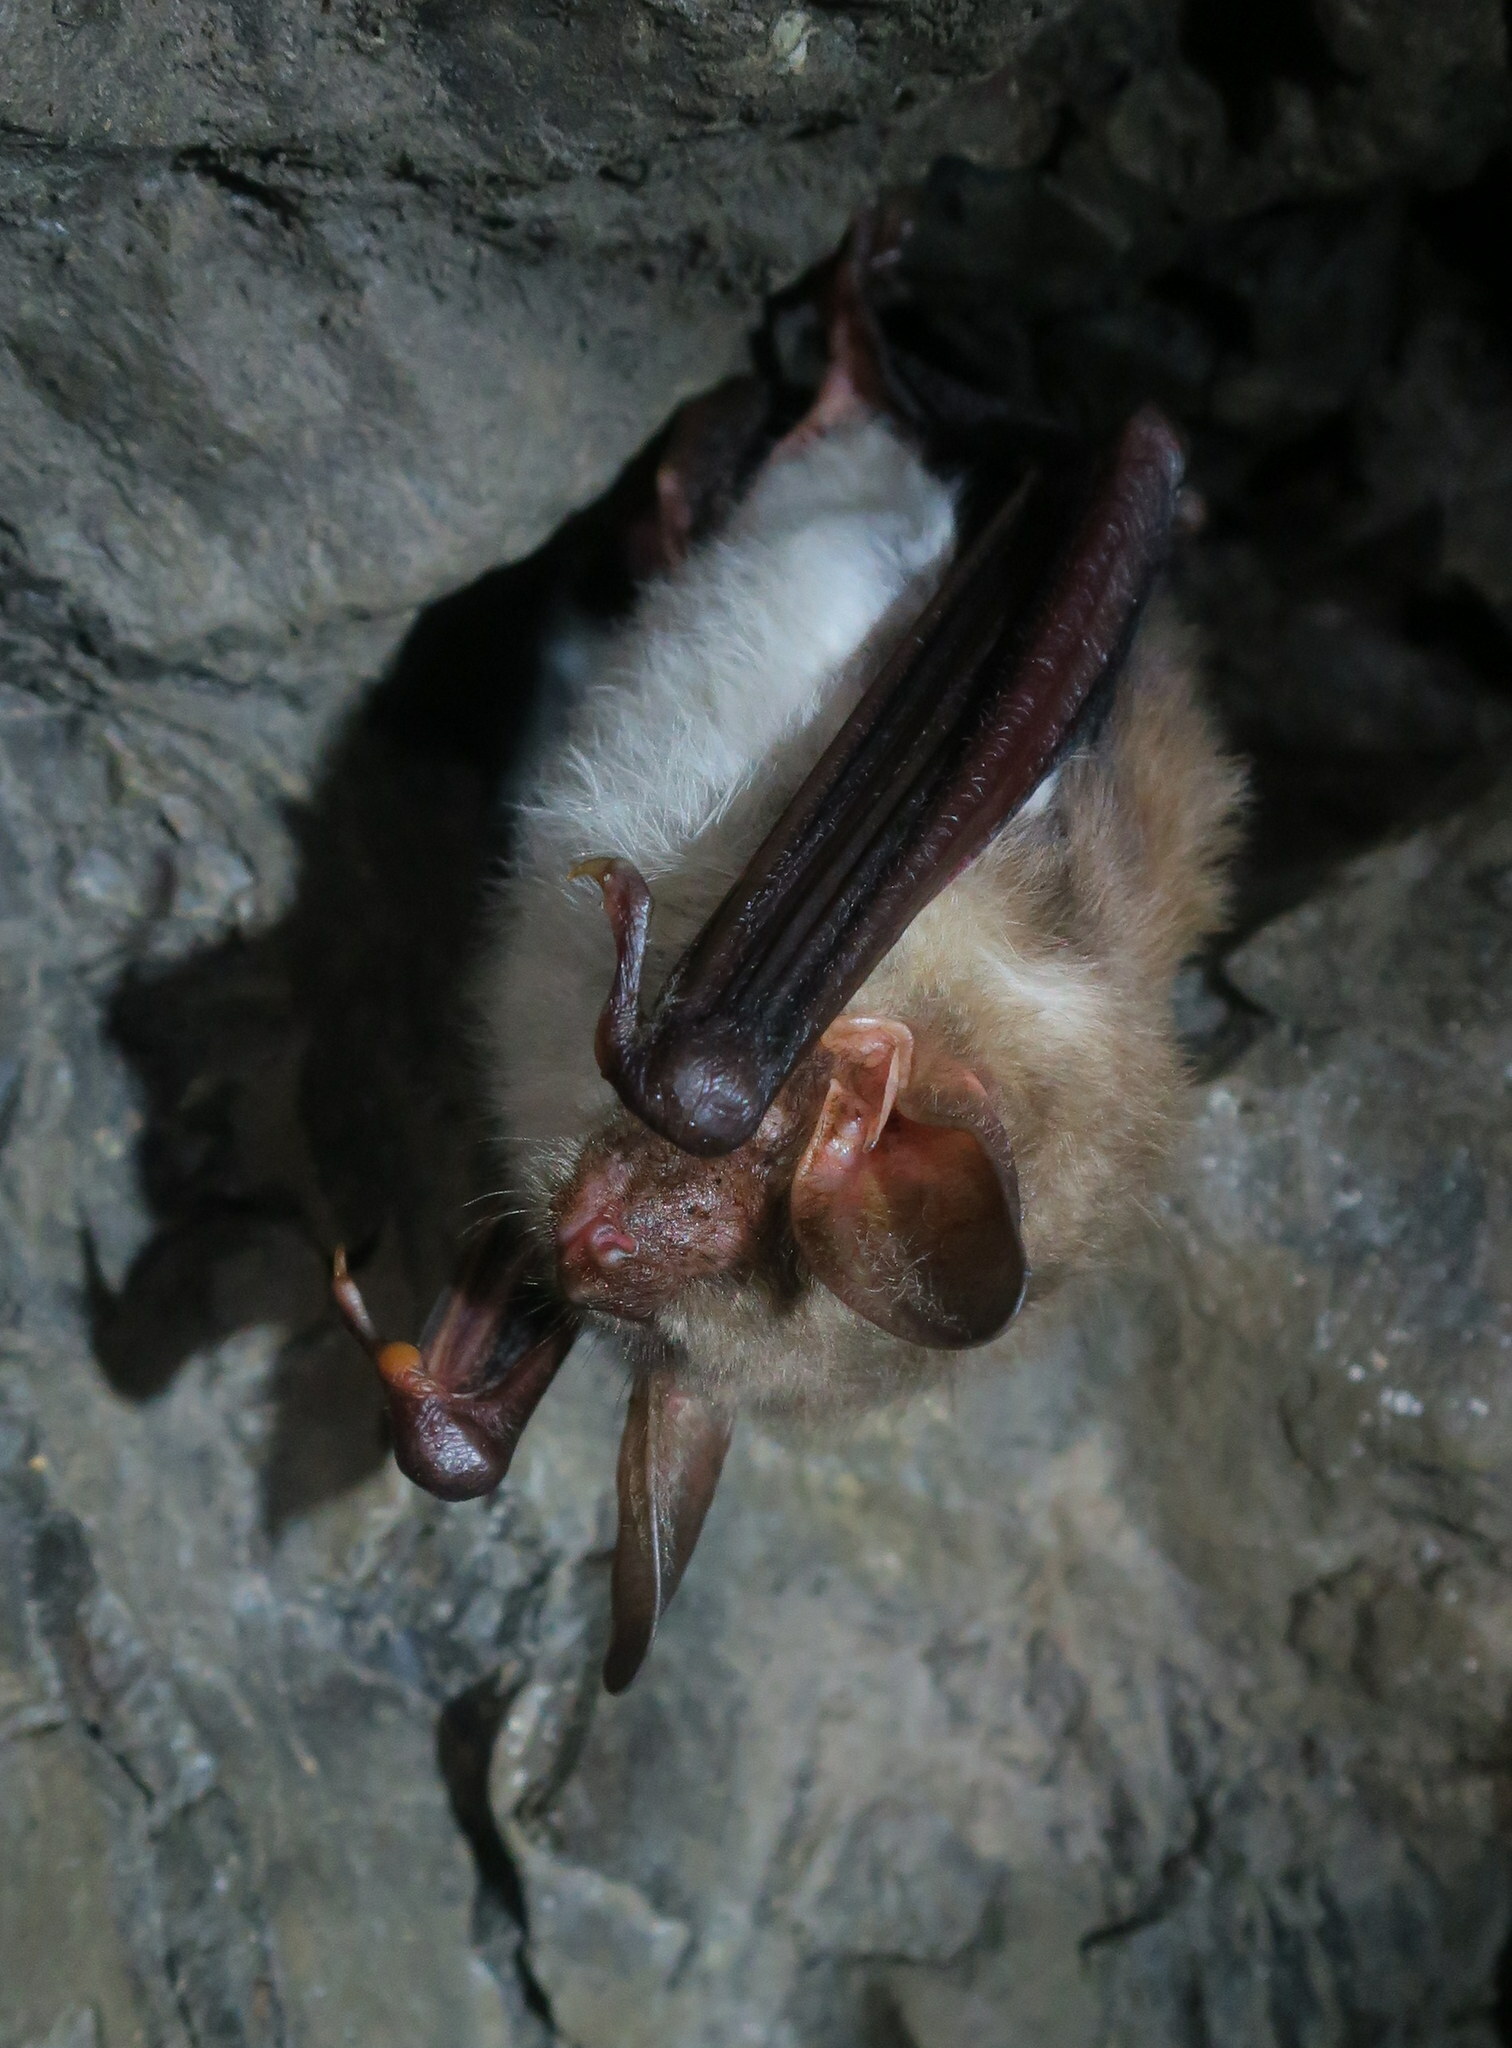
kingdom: Animalia
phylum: Chordata
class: Mammalia
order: Chiroptera
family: Vespertilionidae
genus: Myotis
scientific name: Myotis myotis
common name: Greater mouse-eared bat
